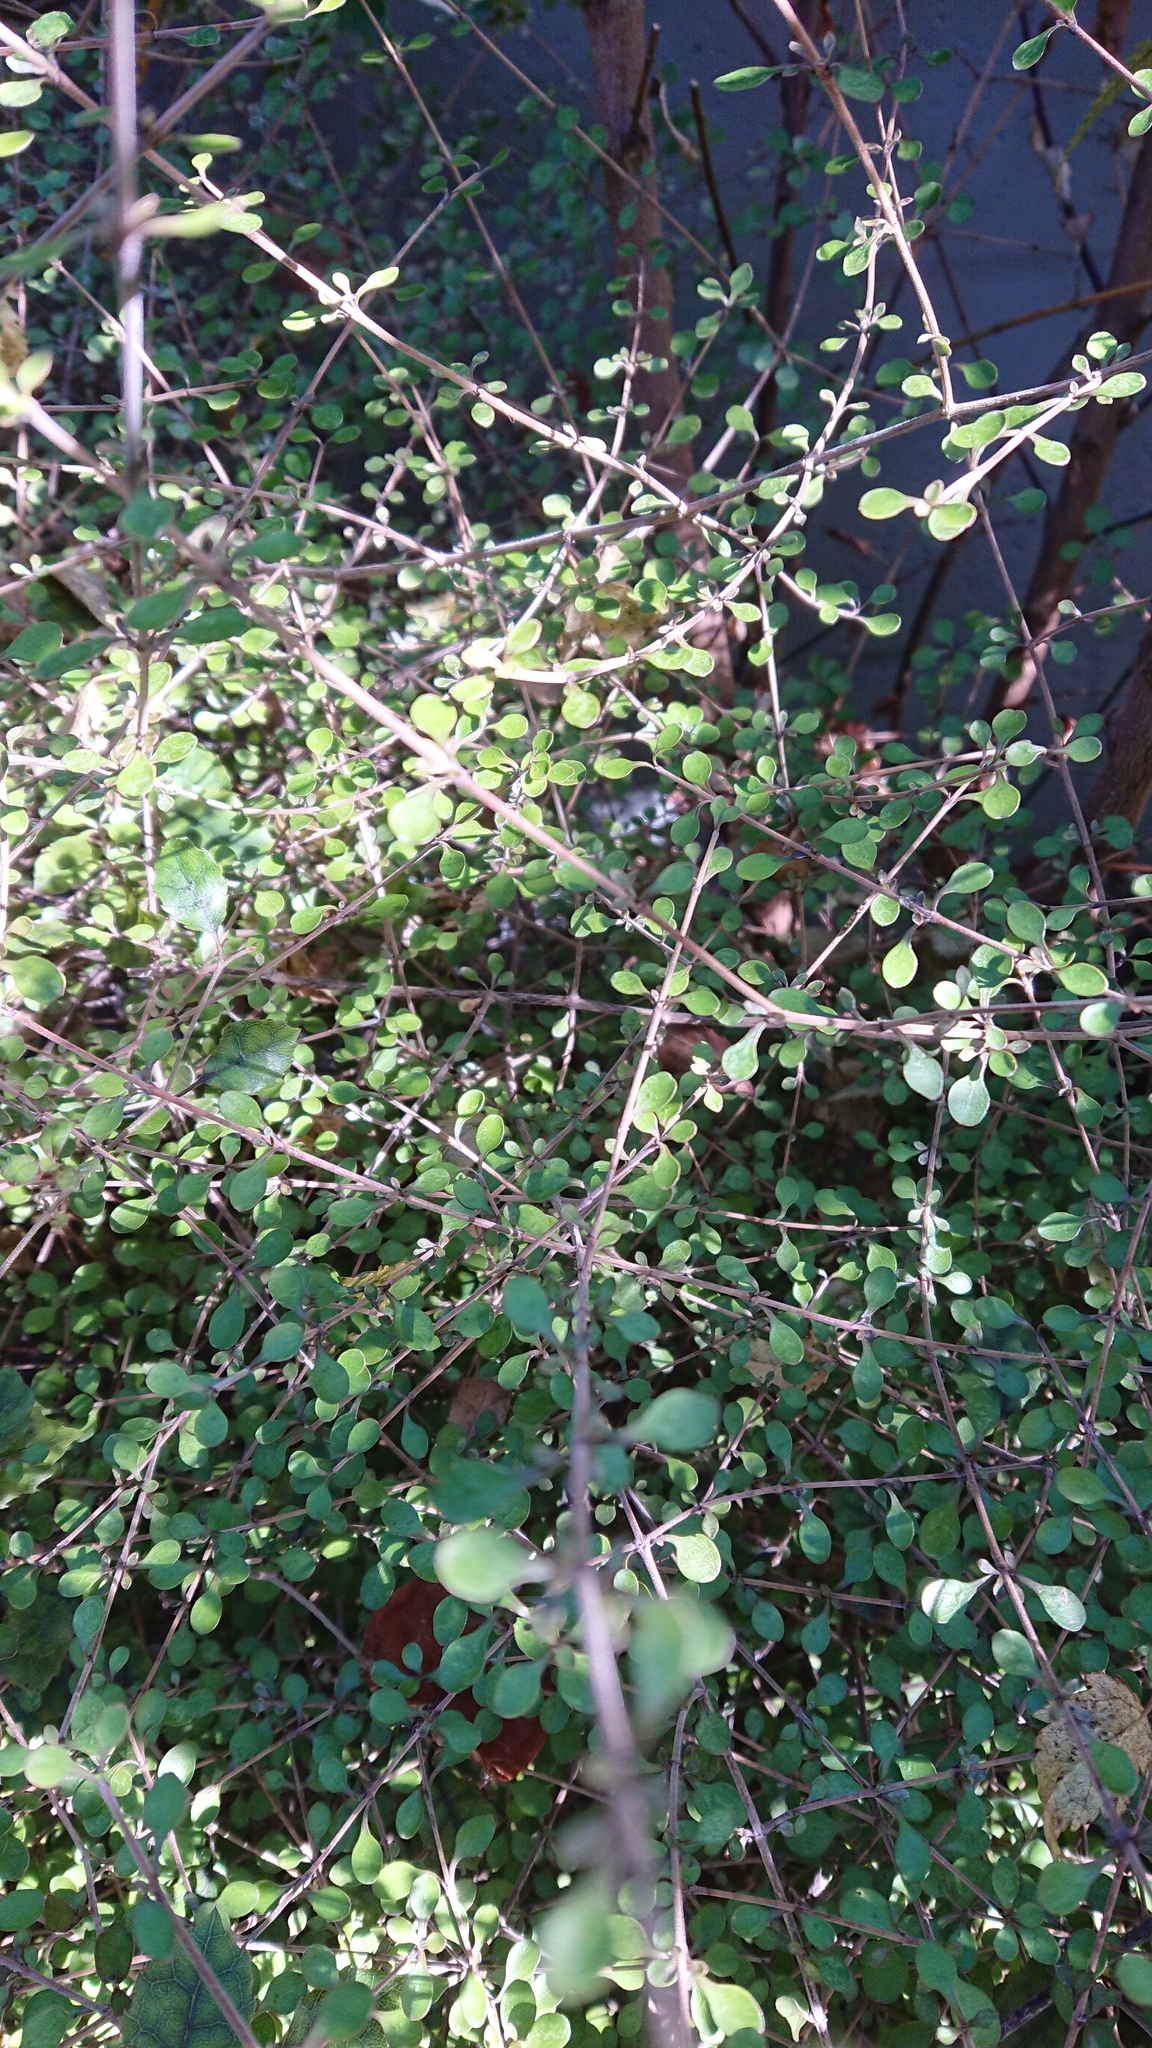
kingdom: Plantae
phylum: Tracheophyta
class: Magnoliopsida
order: Gentianales
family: Rubiaceae
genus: Coprosma
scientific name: Coprosma rubra
